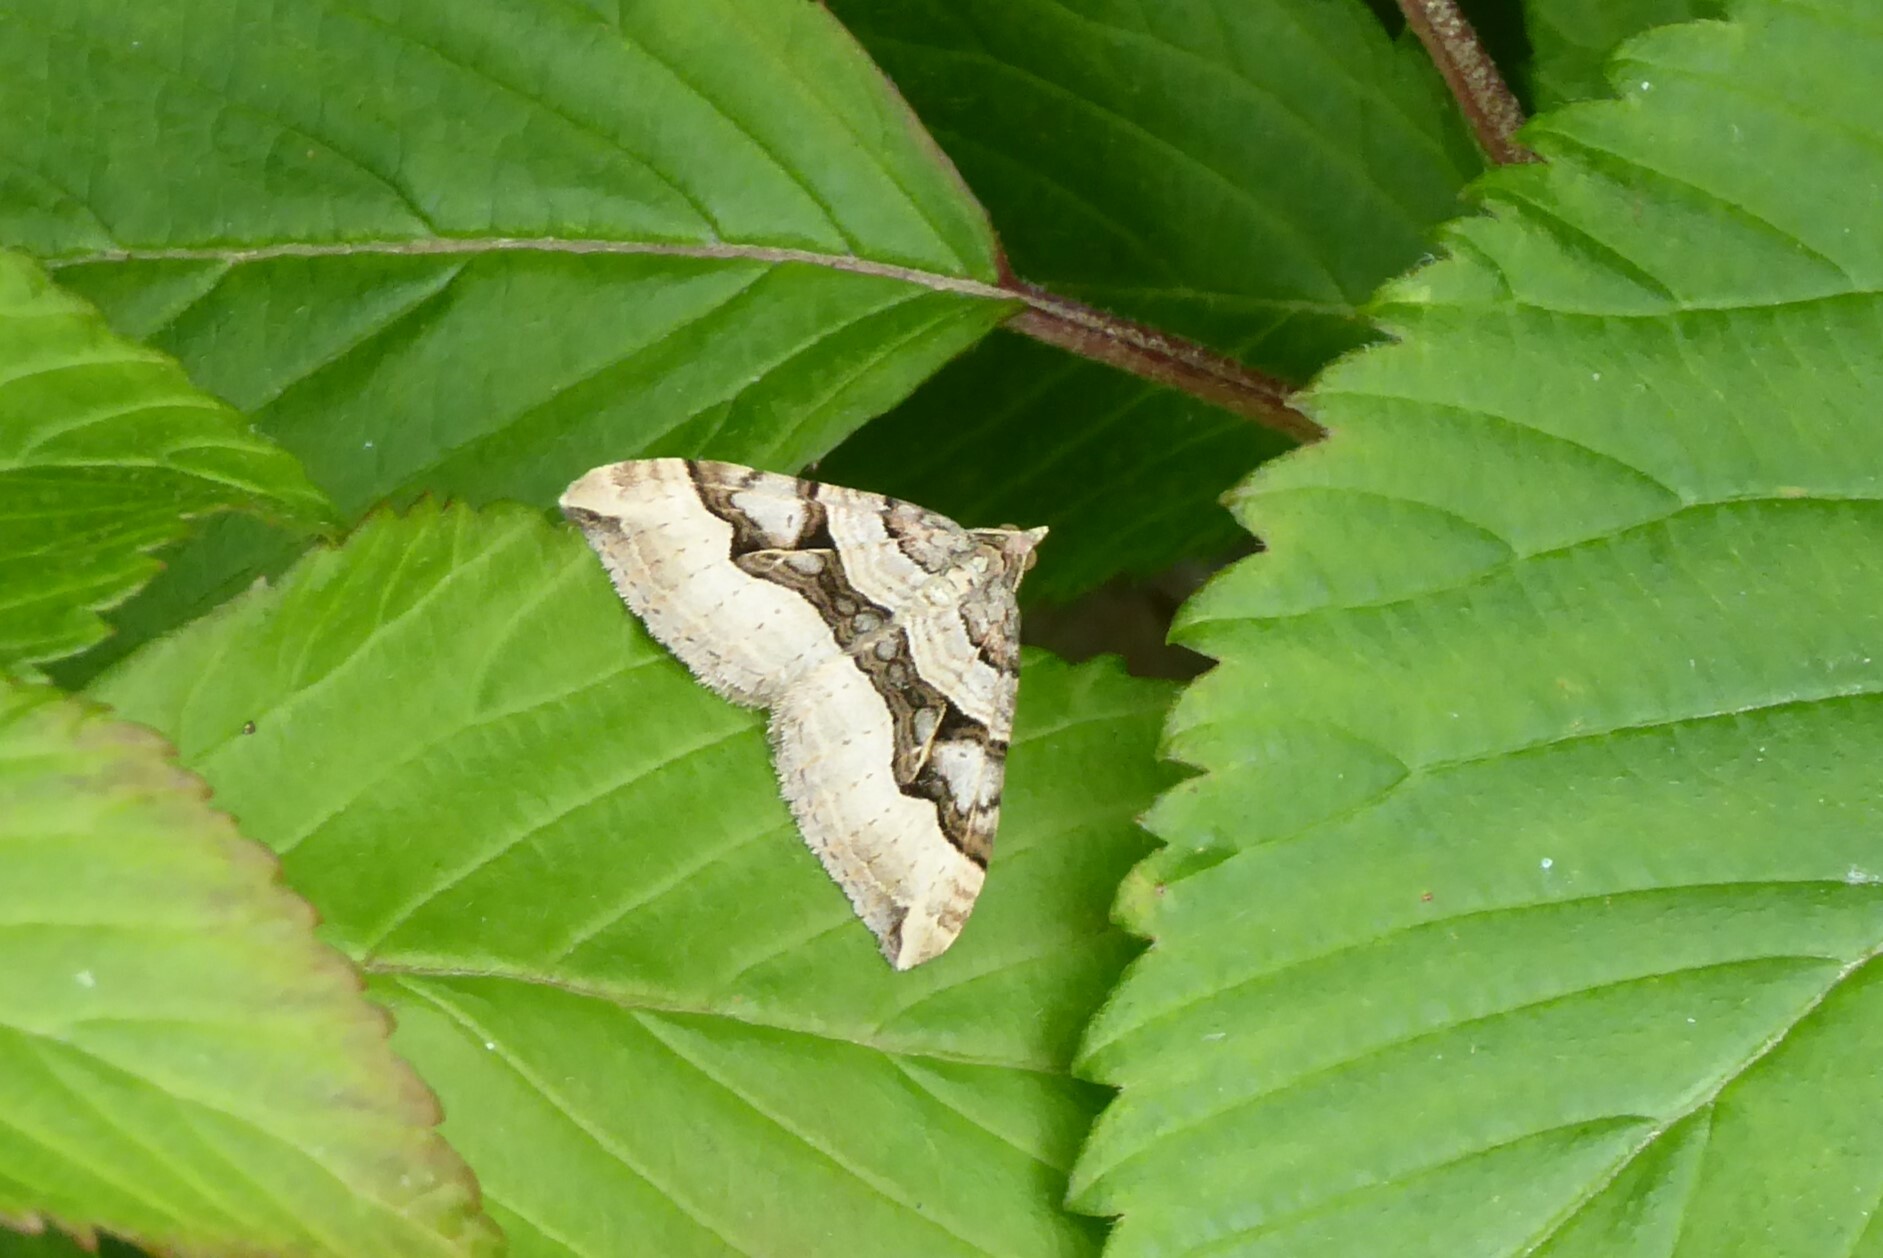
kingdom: Animalia
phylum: Arthropoda
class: Insecta
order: Lepidoptera
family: Geometridae
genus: Xanthorhoe
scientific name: Xanthorhoe semifissata
